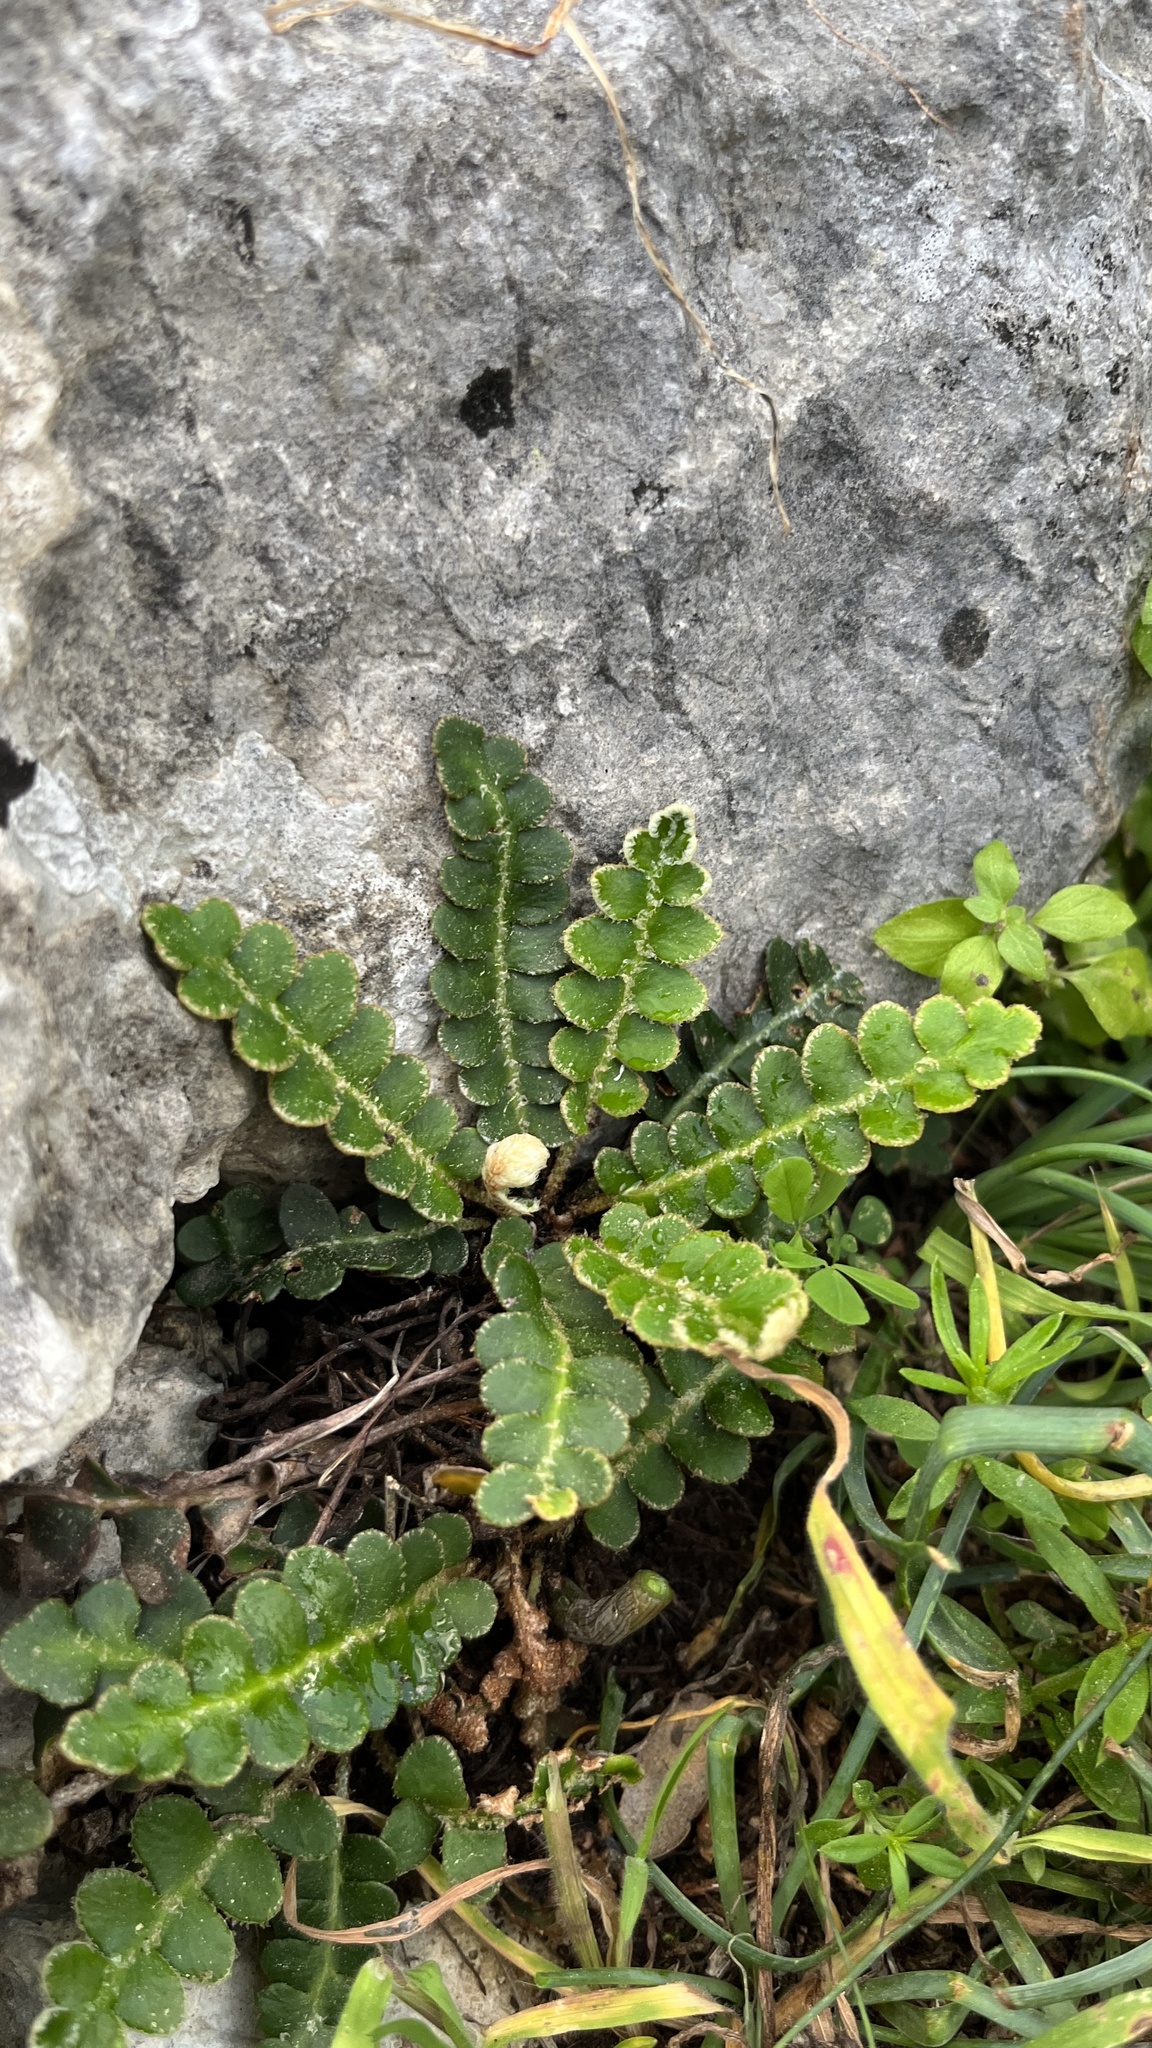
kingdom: Plantae
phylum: Tracheophyta
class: Polypodiopsida
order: Polypodiales
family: Aspleniaceae
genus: Asplenium
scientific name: Asplenium ceterach
